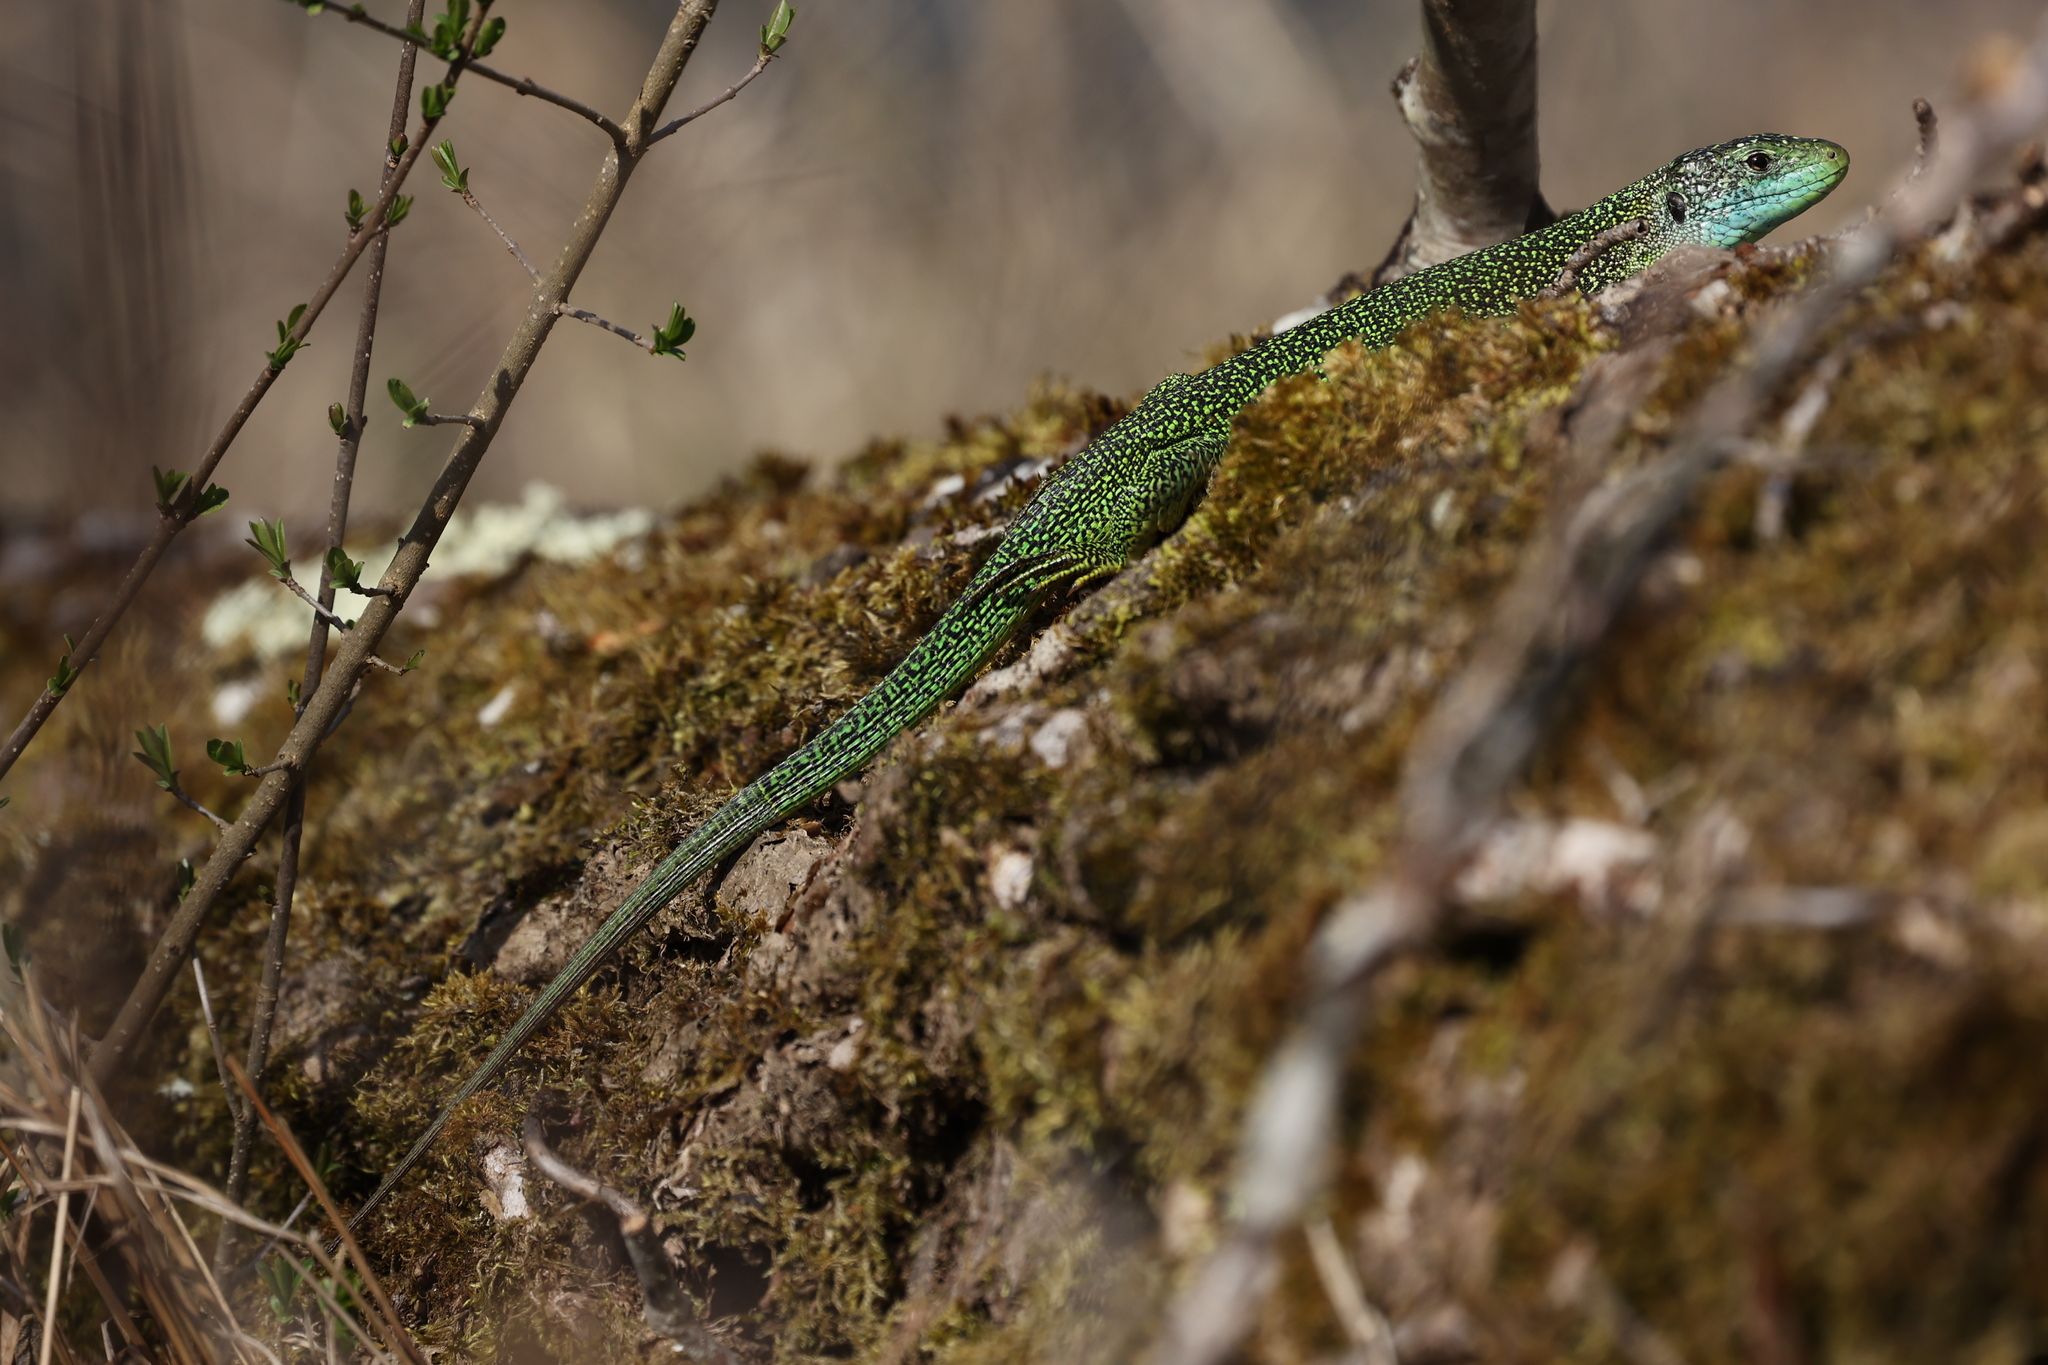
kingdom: Animalia
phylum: Chordata
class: Squamata
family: Lacertidae
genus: Lacerta
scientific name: Lacerta bilineata
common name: Western green lizard
